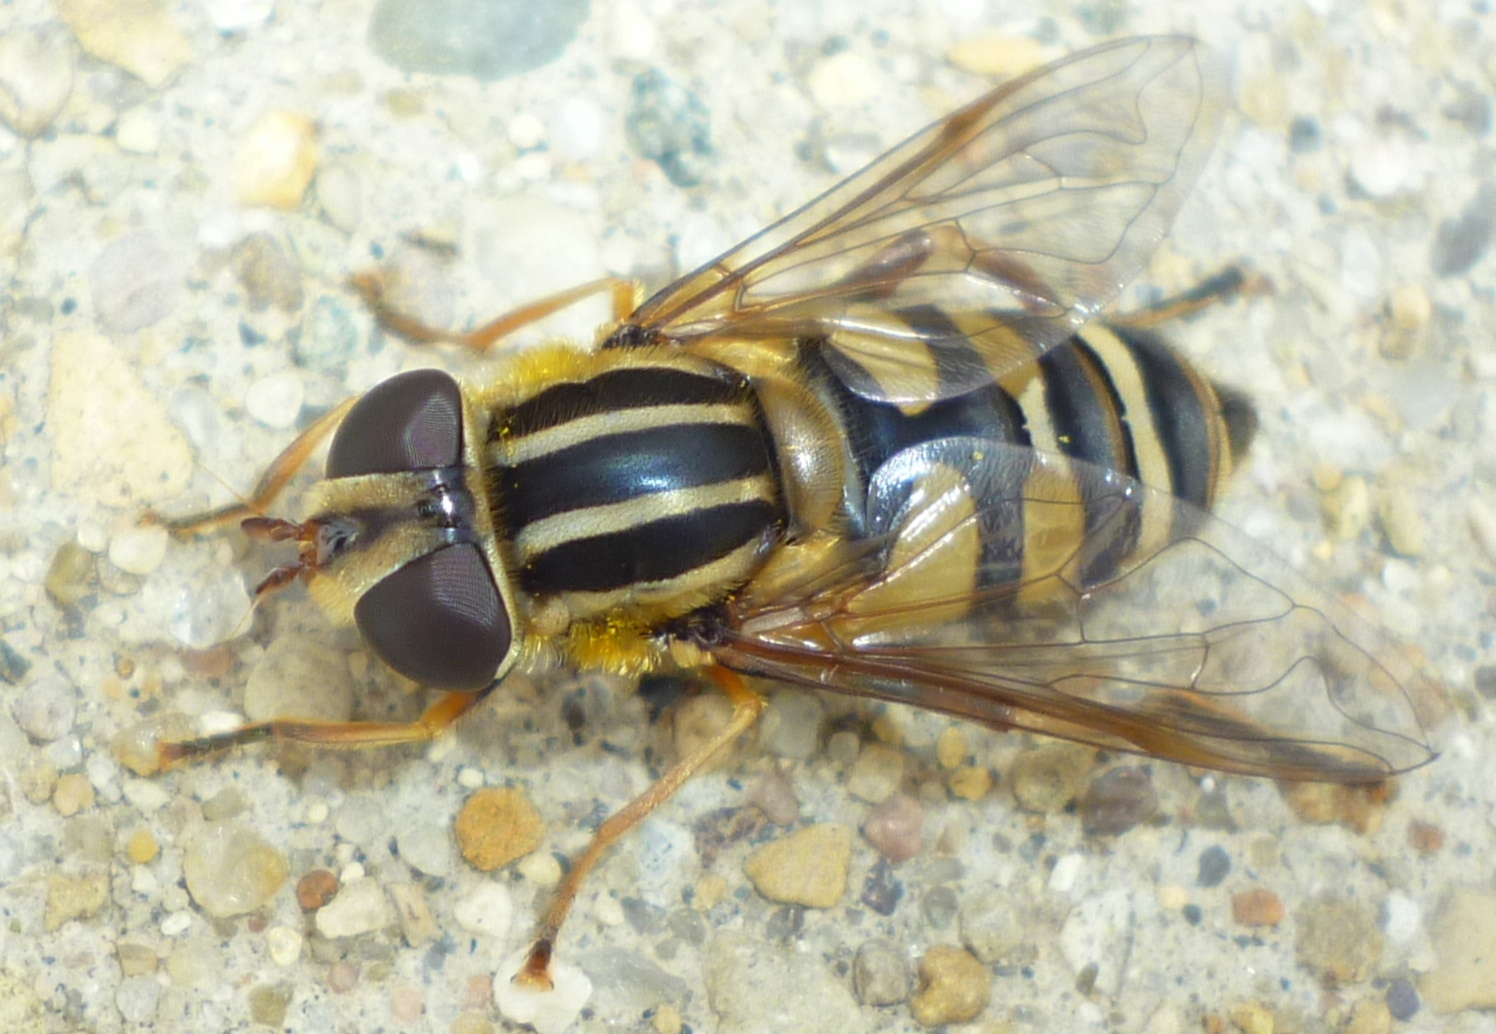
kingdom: Animalia
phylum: Arthropoda
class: Insecta
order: Diptera
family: Syrphidae
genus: Helophilus
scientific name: Helophilus fasciatus
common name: Narrow-headed marsh fly
